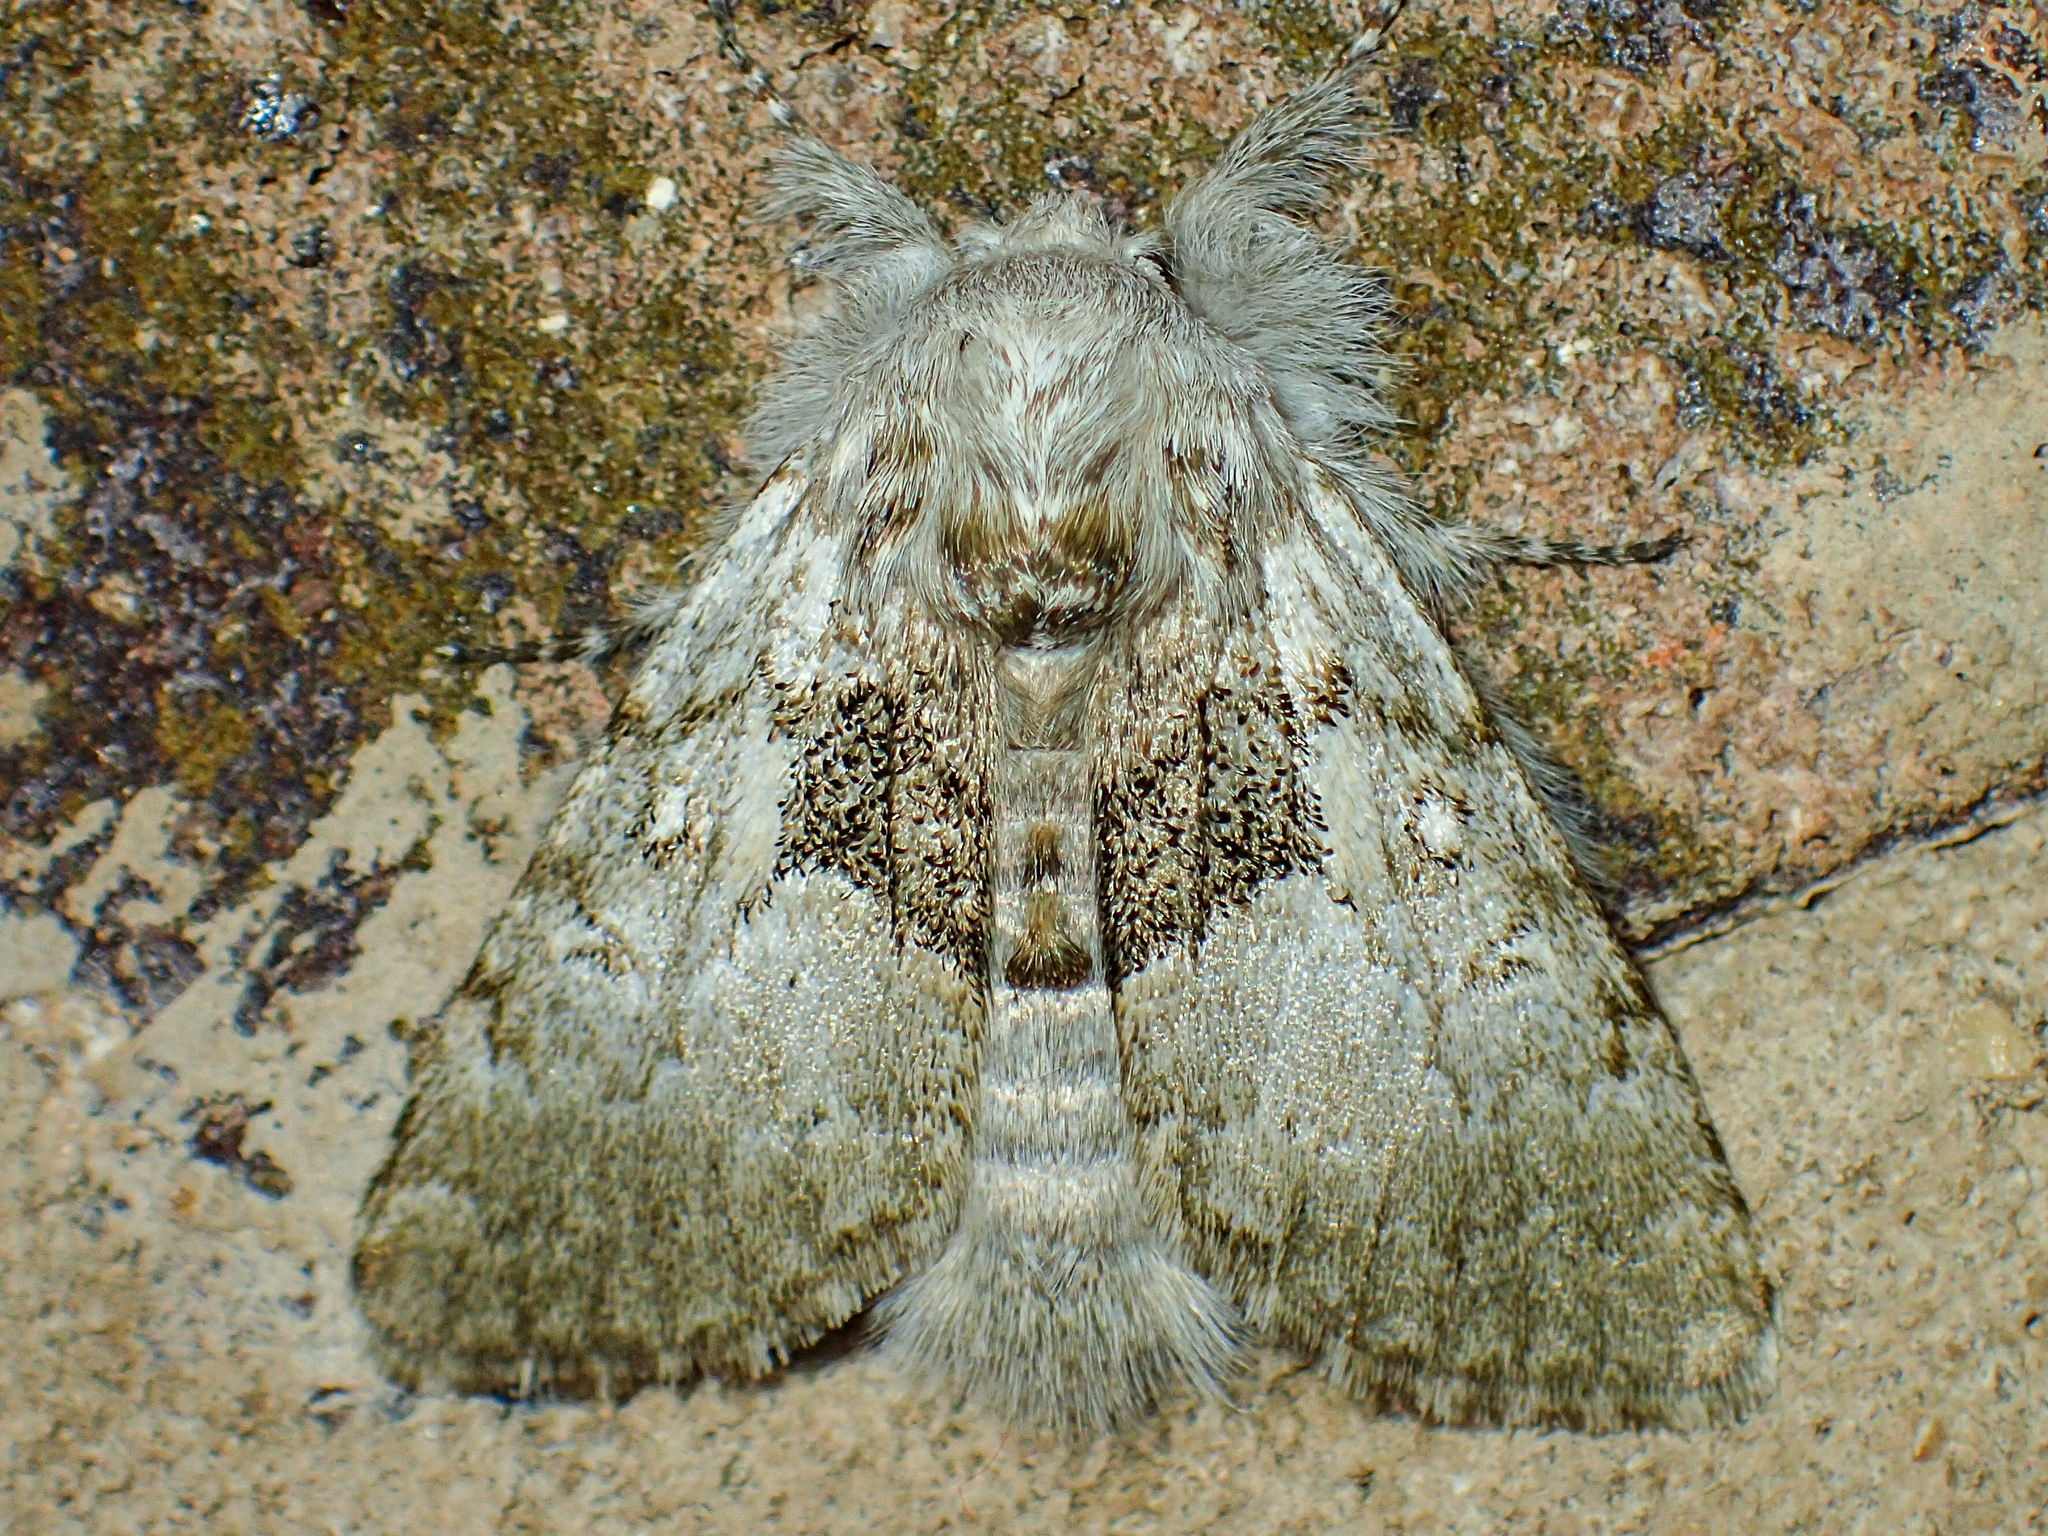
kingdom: Animalia
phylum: Arthropoda
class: Insecta
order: Lepidoptera
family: Noctuidae
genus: Colocasia
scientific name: Colocasia flavicornis
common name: Saddled yellowhorn
